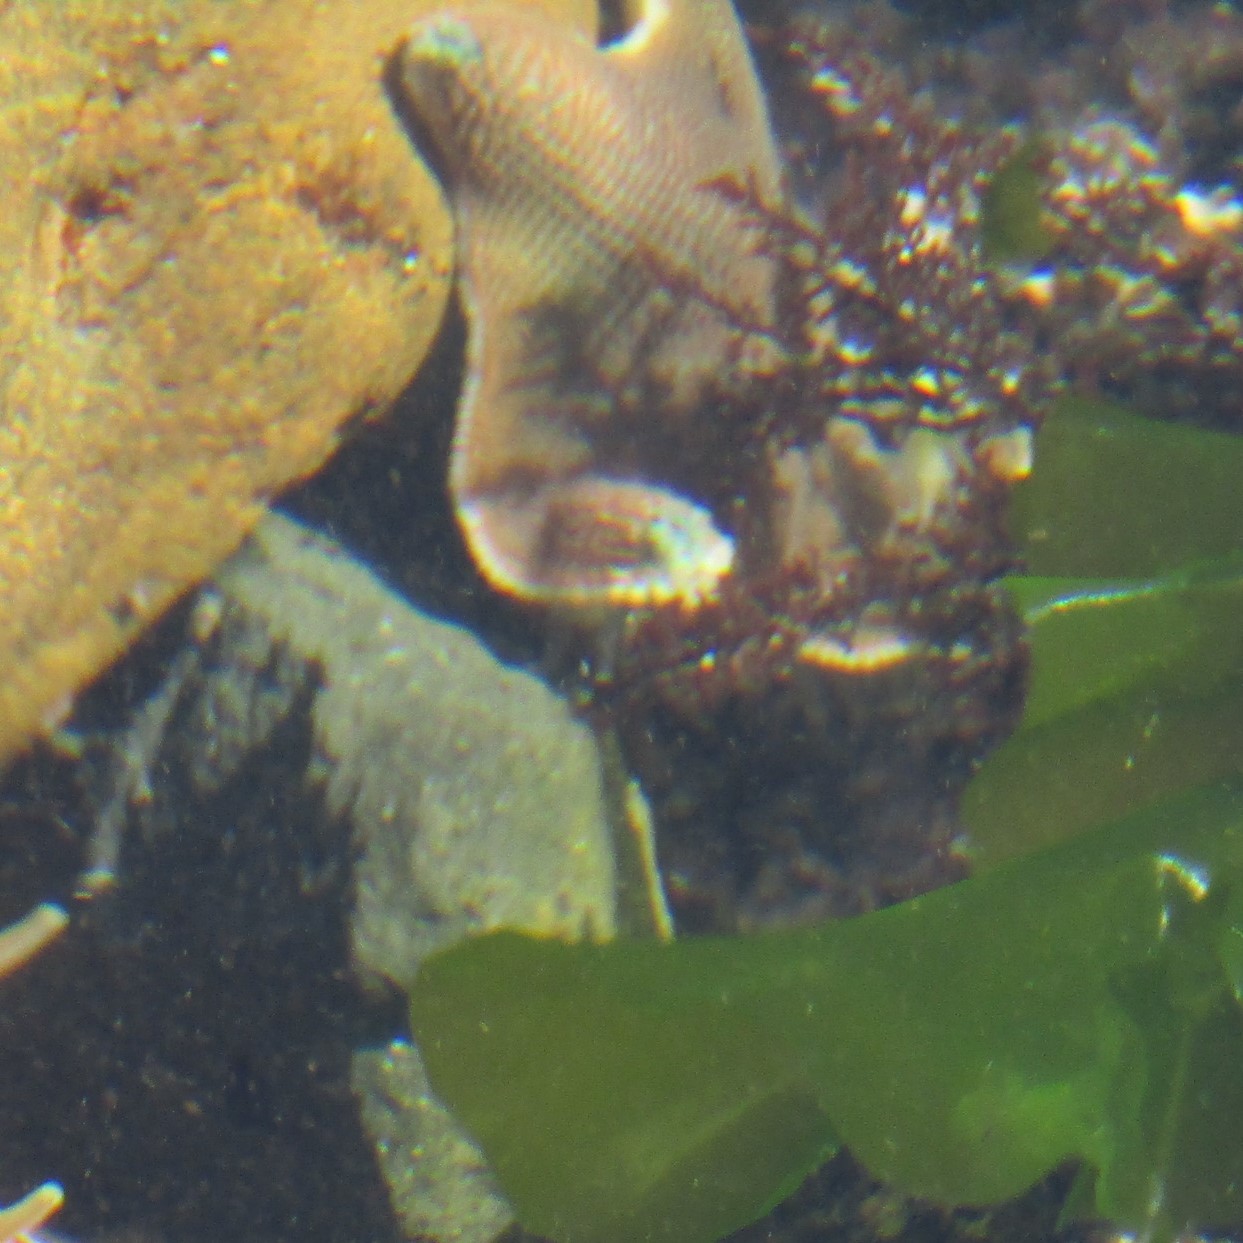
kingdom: Animalia
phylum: Echinodermata
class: Asteroidea
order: Valvatida
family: Asterinidae
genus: Patiriella
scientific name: Patiriella regularis
